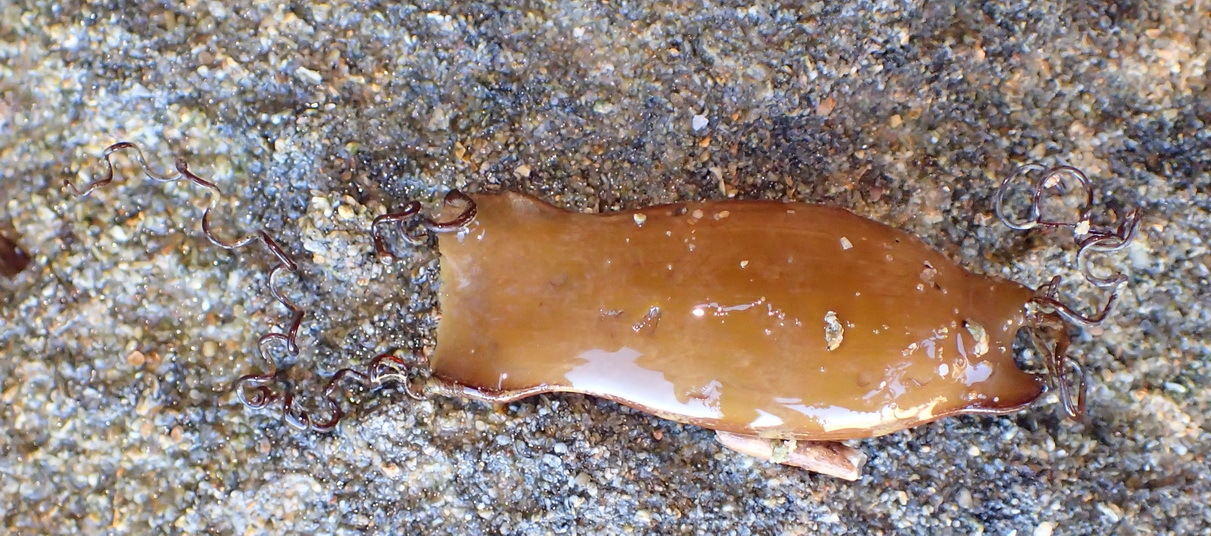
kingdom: Animalia
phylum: Chordata
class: Elasmobranchii
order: Carcharhiniformes
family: Scyliorhinidae
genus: Poroderma
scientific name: Poroderma pantherinum
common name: Leopard catshark
